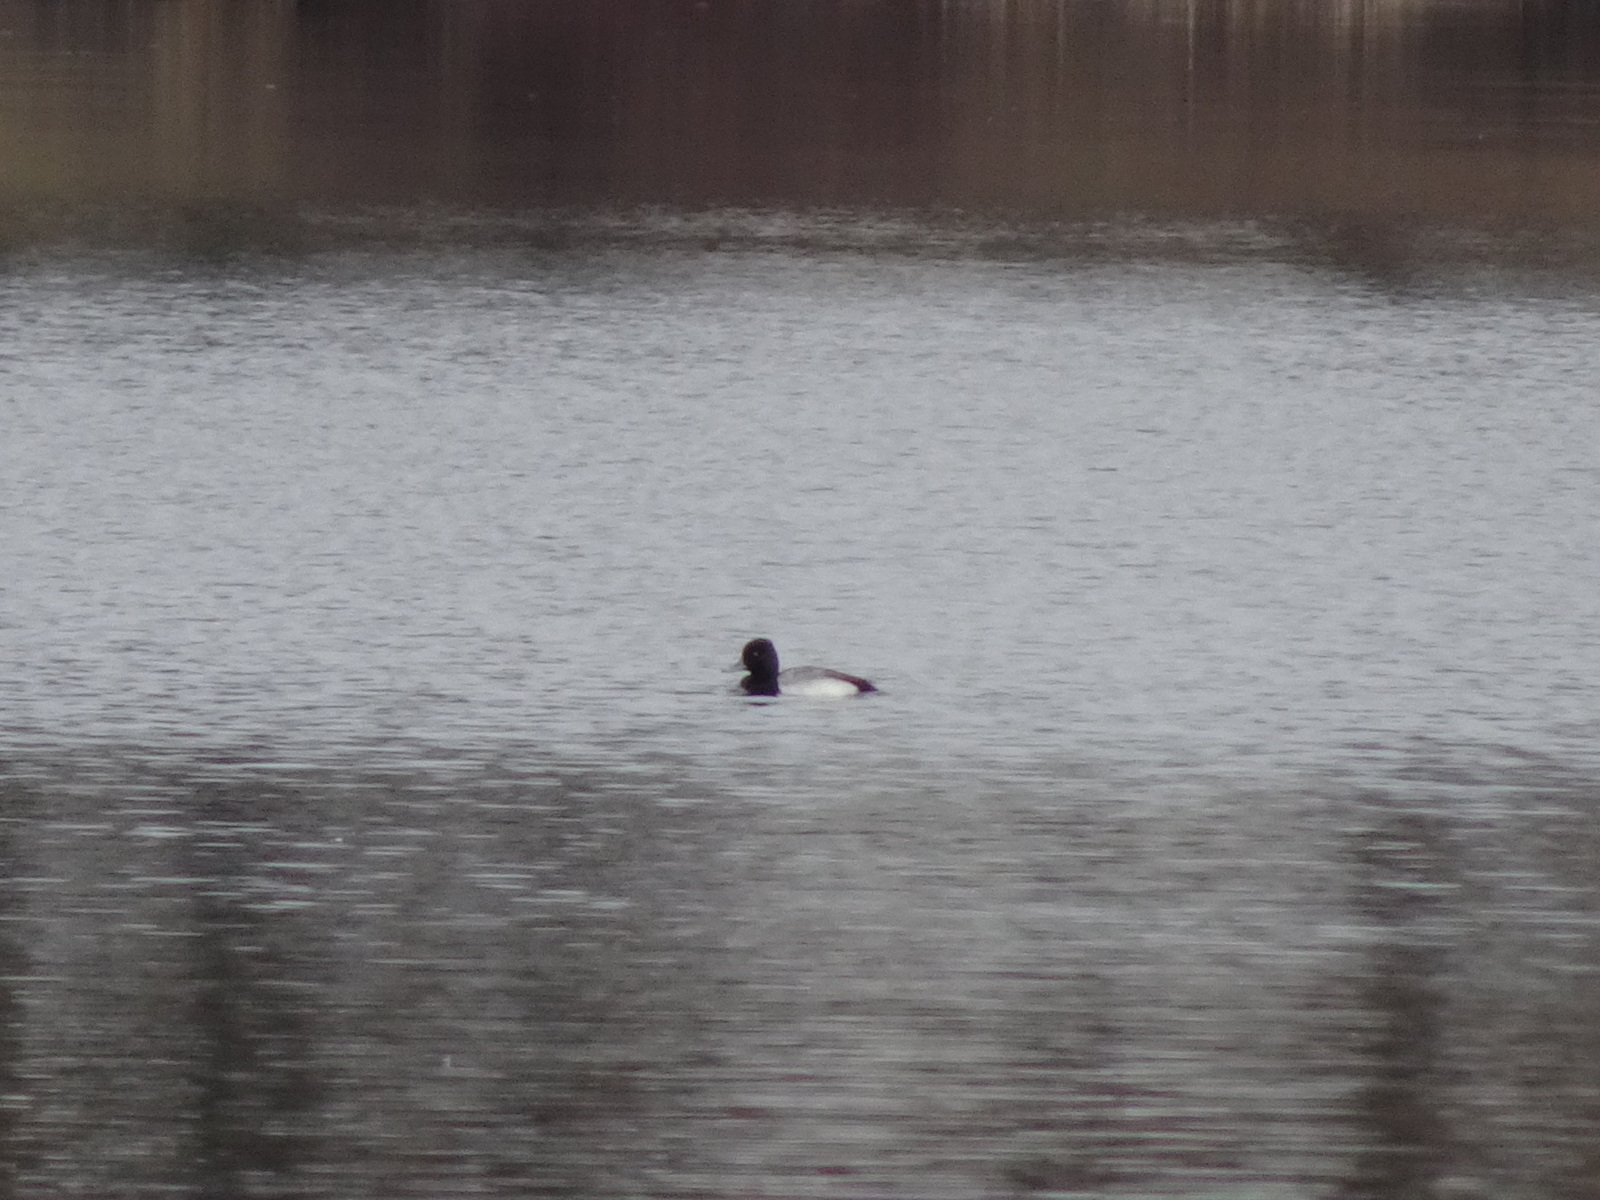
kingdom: Animalia
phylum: Chordata
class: Aves
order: Anseriformes
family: Anatidae
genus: Aythya
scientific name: Aythya affinis
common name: Lesser scaup
